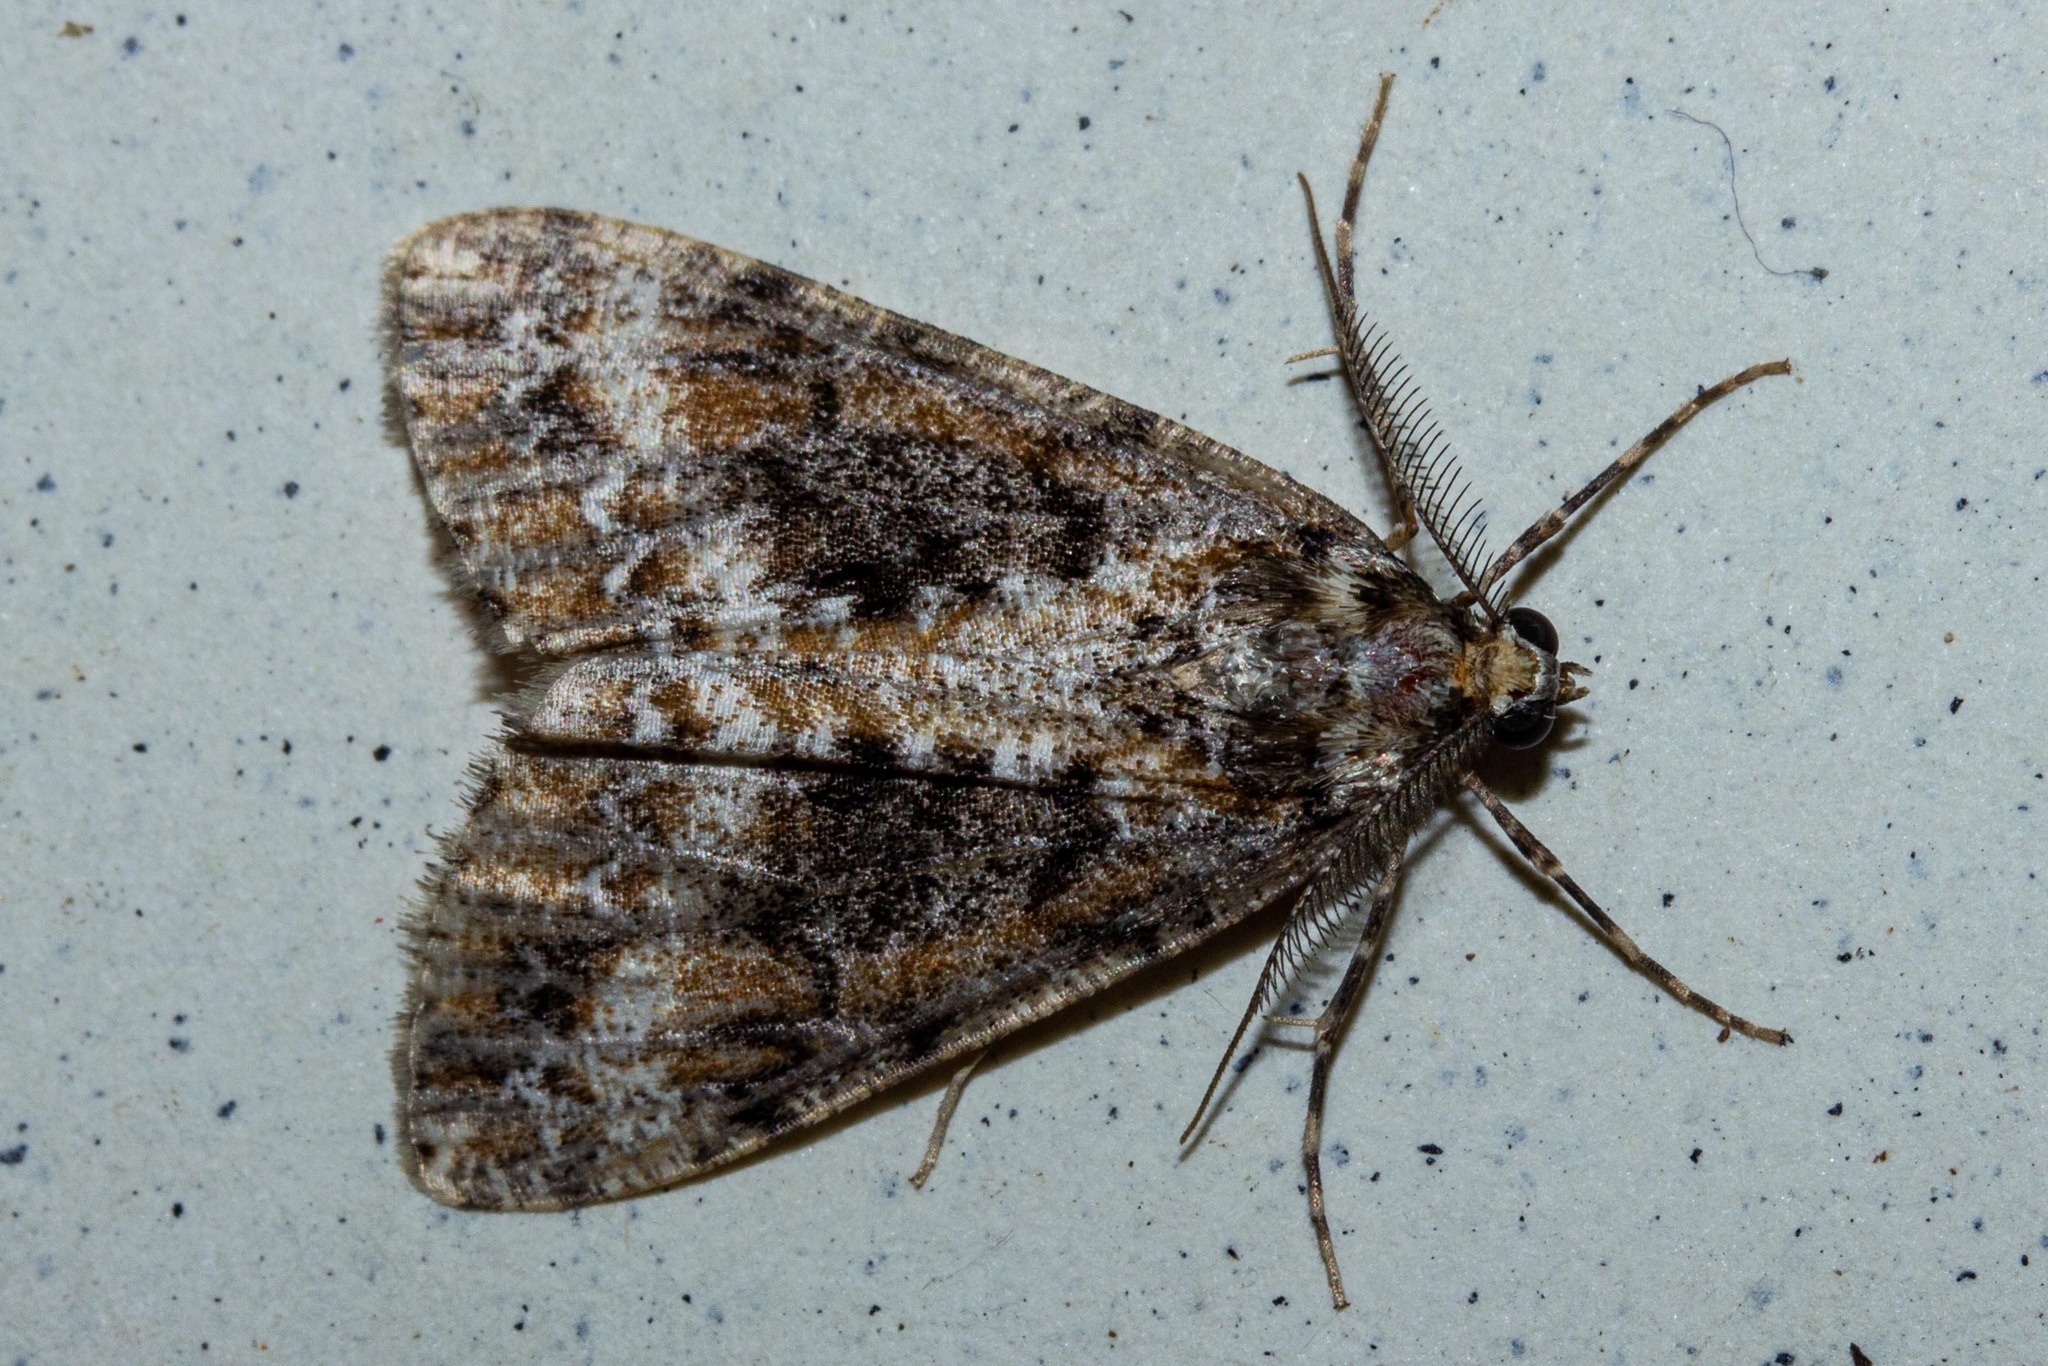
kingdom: Animalia
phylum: Arthropoda
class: Insecta
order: Lepidoptera
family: Geometridae
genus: Pseudocoremia
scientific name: Pseudocoremia leucelaea
